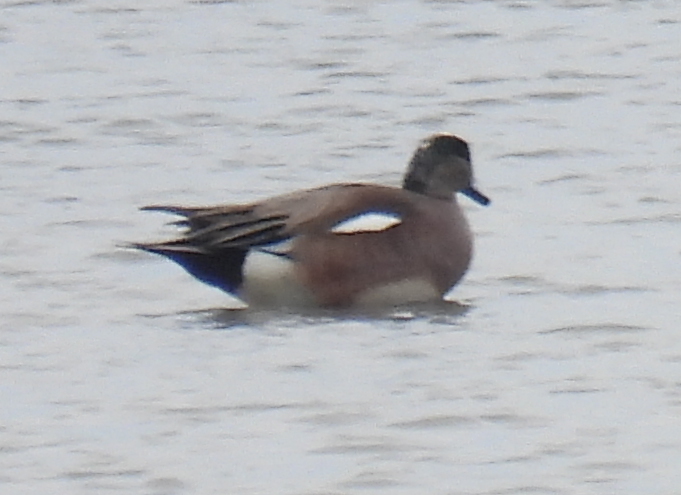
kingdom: Animalia
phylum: Chordata
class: Aves
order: Anseriformes
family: Anatidae
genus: Mareca
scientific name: Mareca americana
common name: American wigeon
